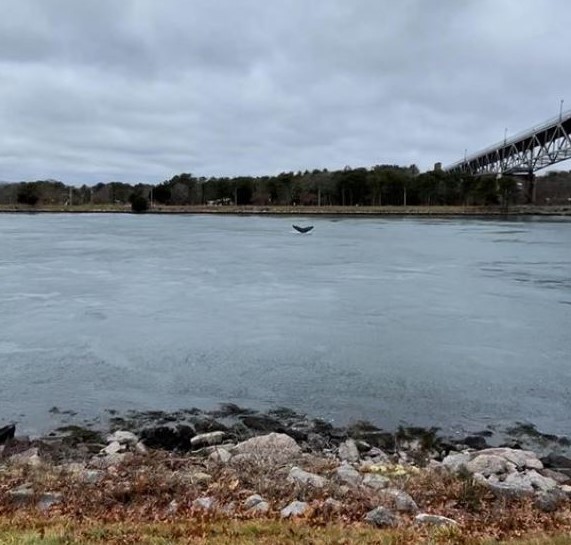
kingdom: Animalia
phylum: Chordata
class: Mammalia
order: Cetacea
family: Balaenopteridae
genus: Megaptera
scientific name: Megaptera novaeangliae
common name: Humpback whale
